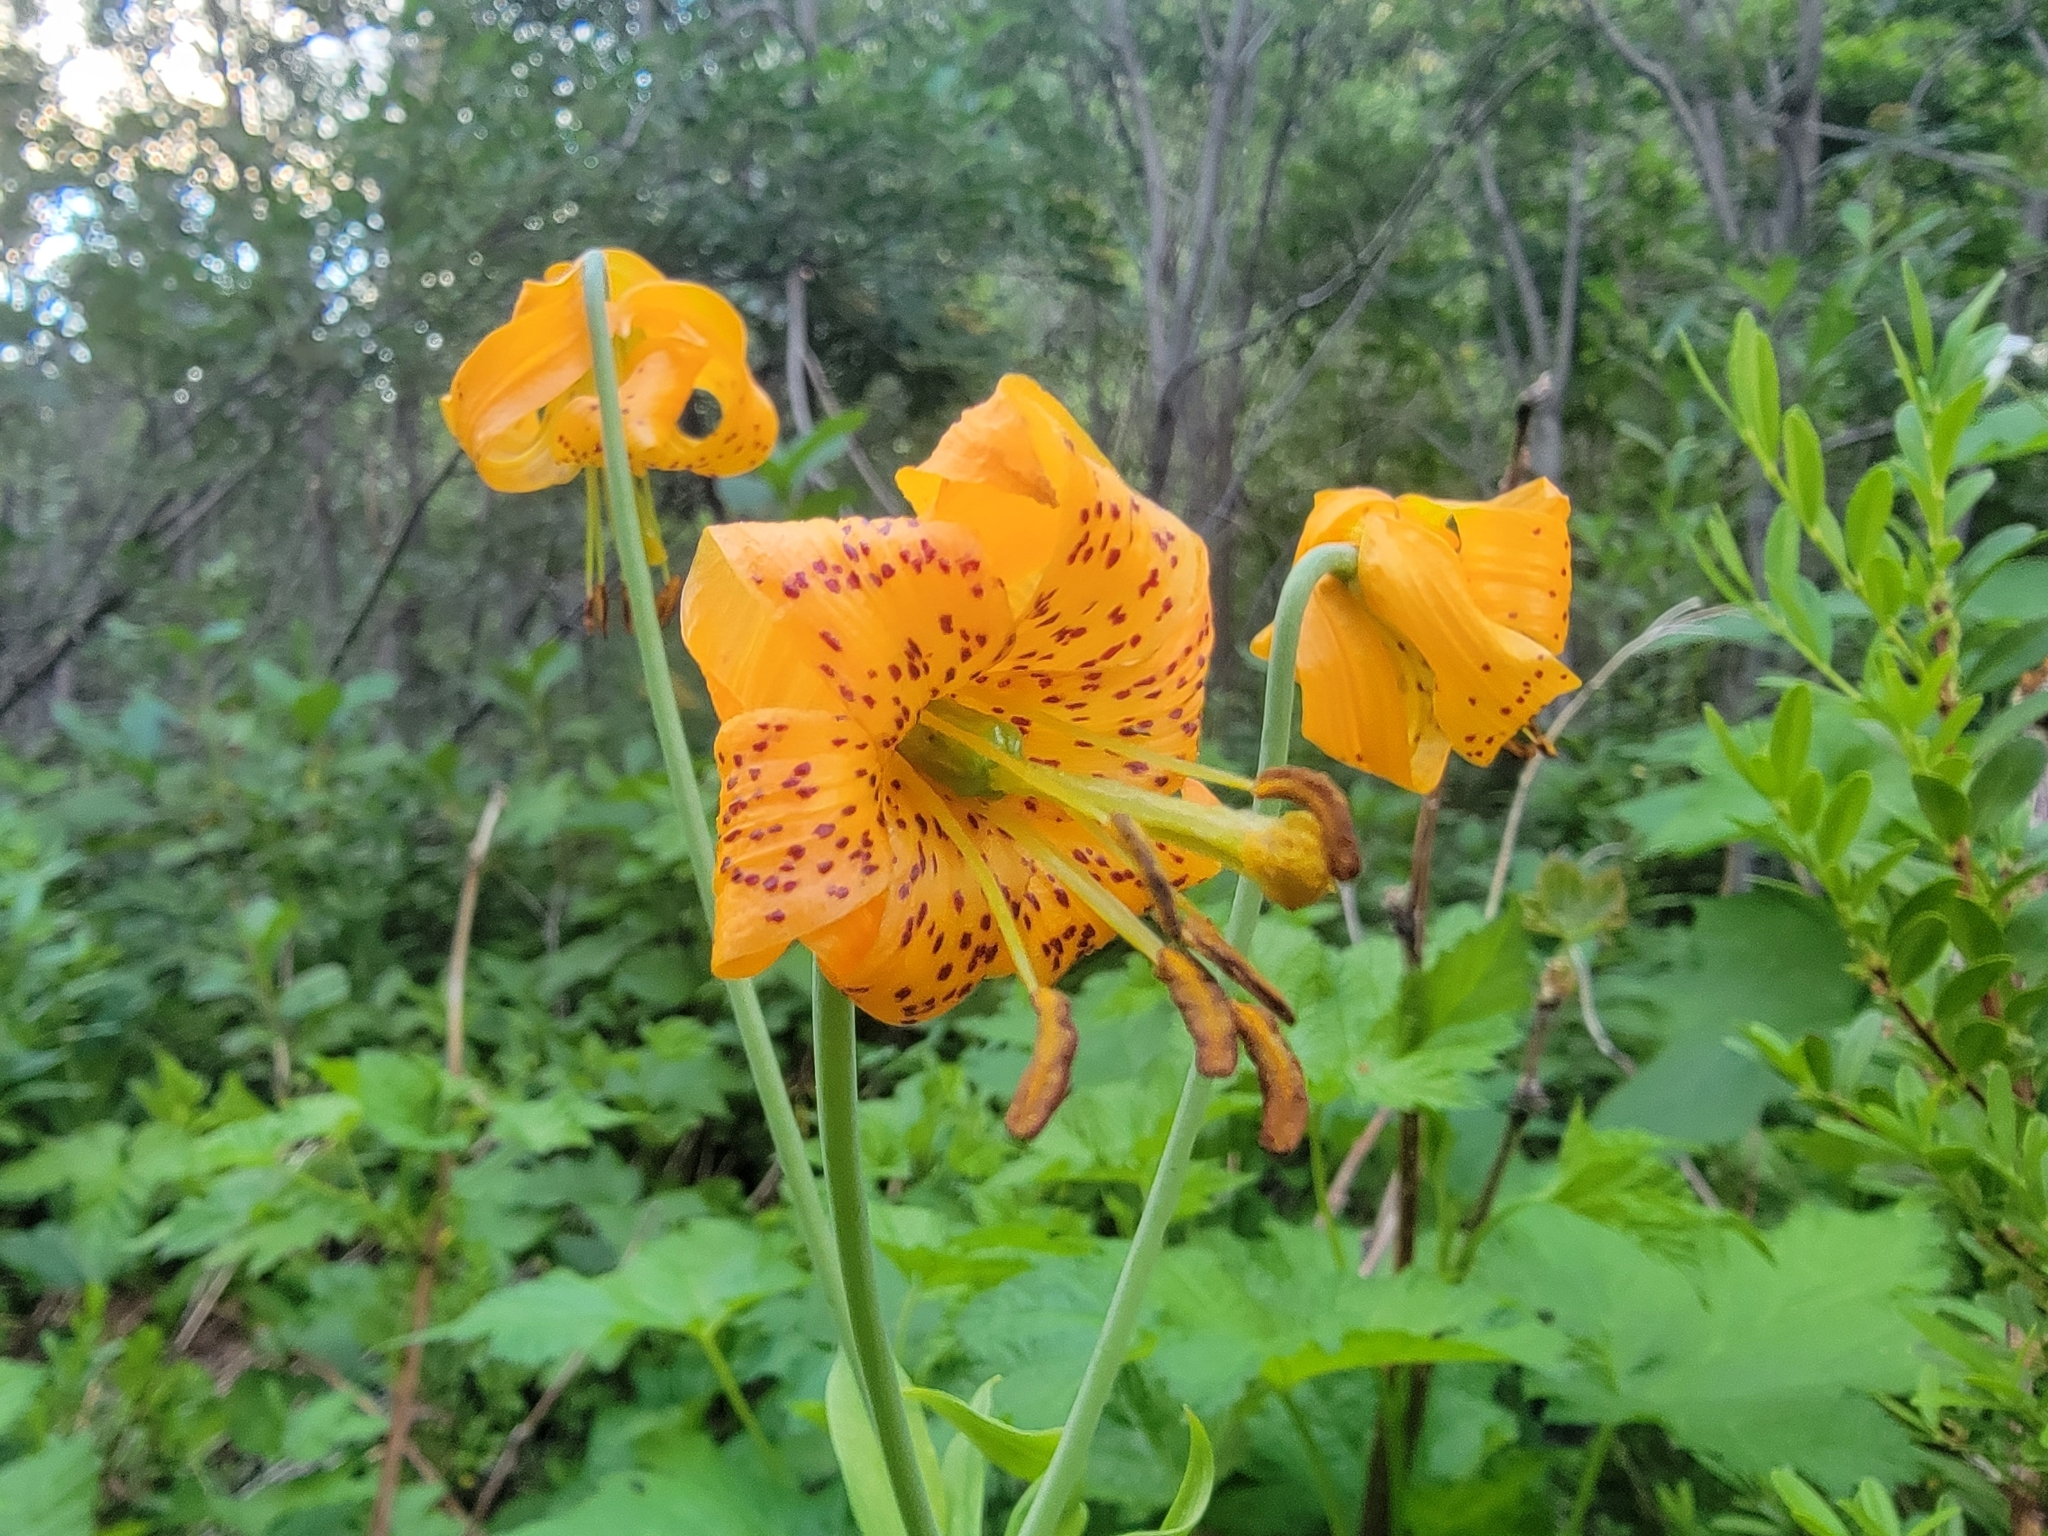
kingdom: Plantae
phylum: Tracheophyta
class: Liliopsida
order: Liliales
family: Liliaceae
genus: Lilium
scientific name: Lilium columbianum
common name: Columbia lily
